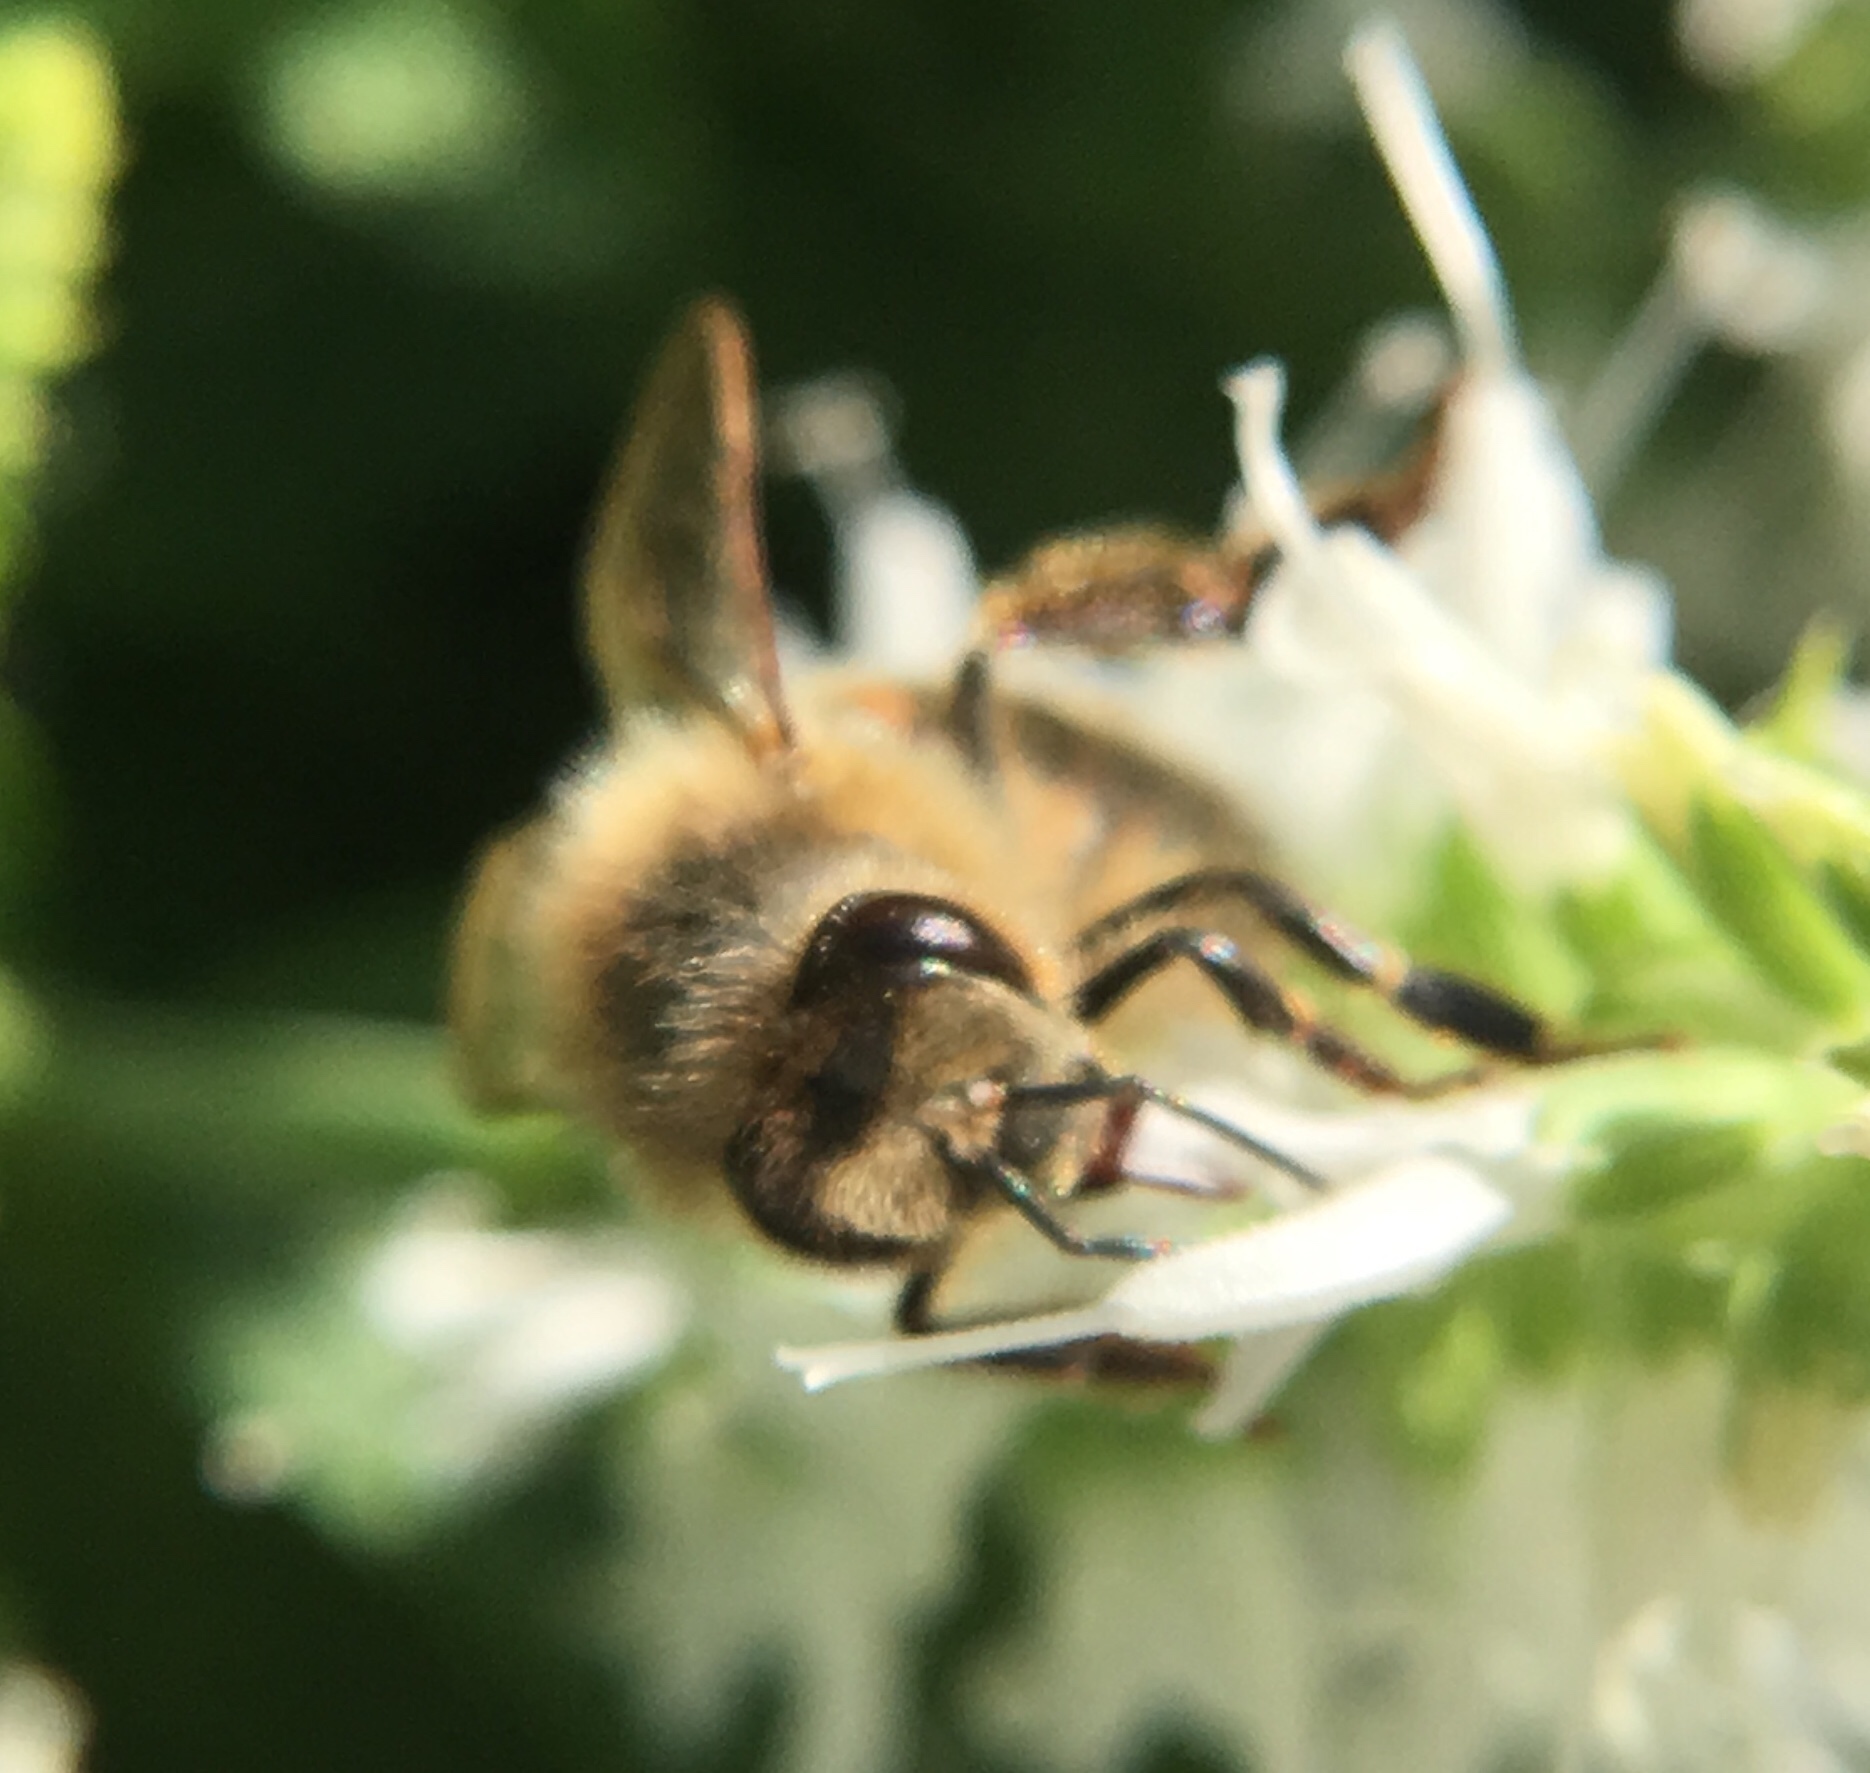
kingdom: Animalia
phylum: Arthropoda
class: Insecta
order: Hymenoptera
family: Apidae
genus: Apis
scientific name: Apis mellifera
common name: Honey bee
